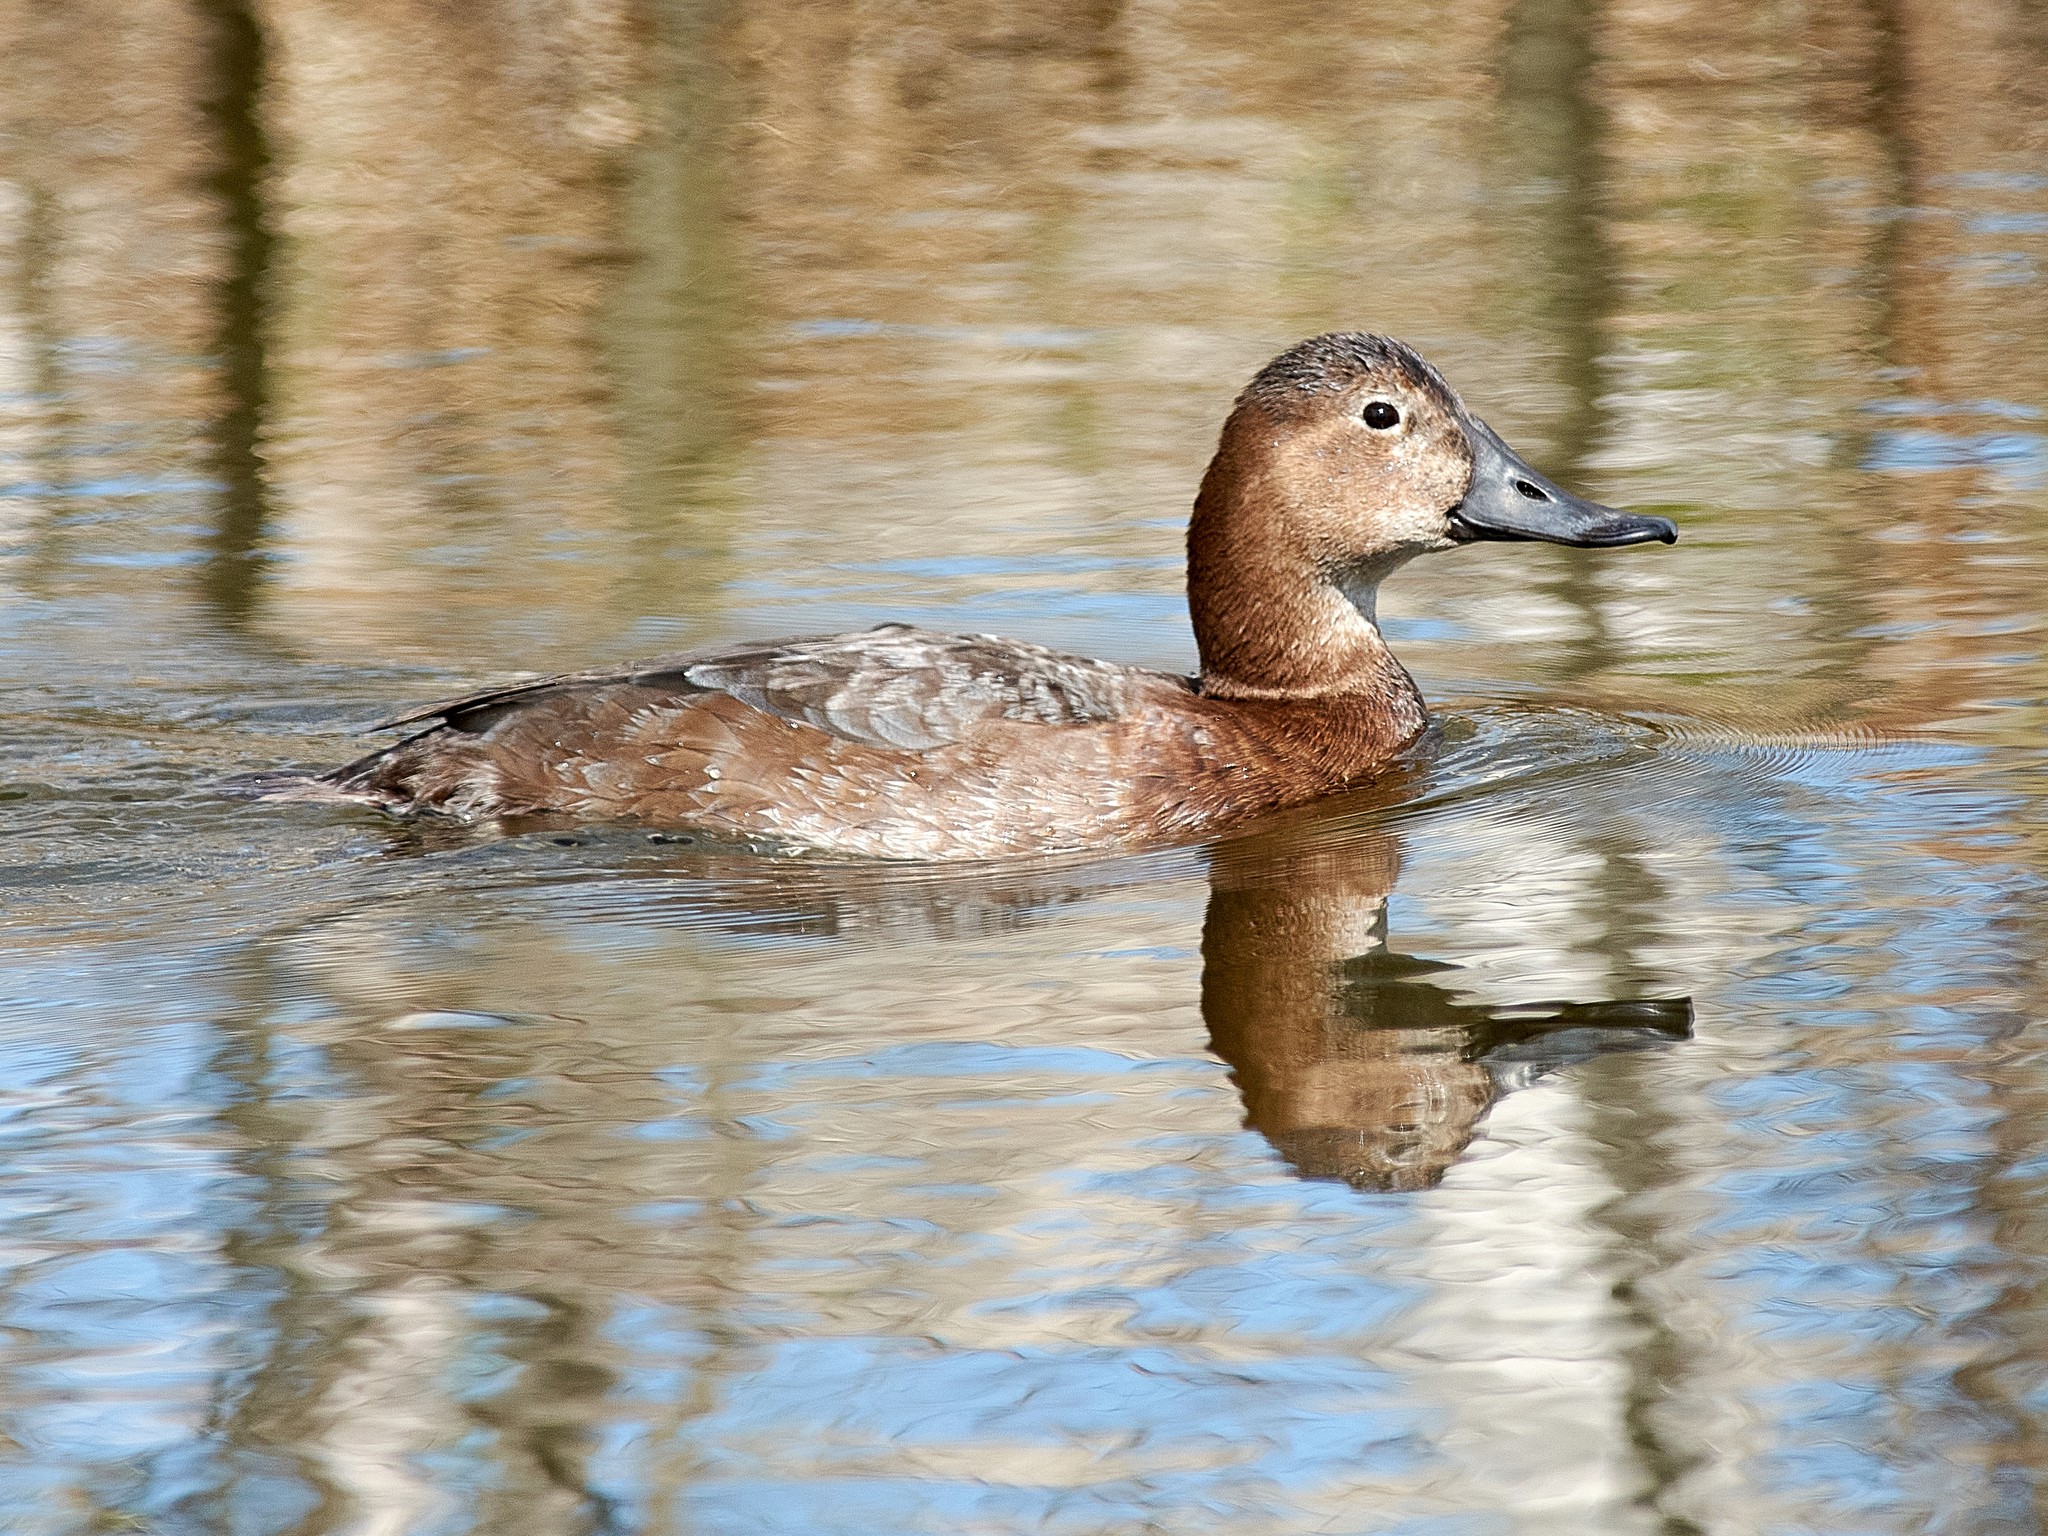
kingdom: Animalia
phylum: Chordata
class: Aves
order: Anseriformes
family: Anatidae
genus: Aythya
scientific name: Aythya ferina
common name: Common pochard
